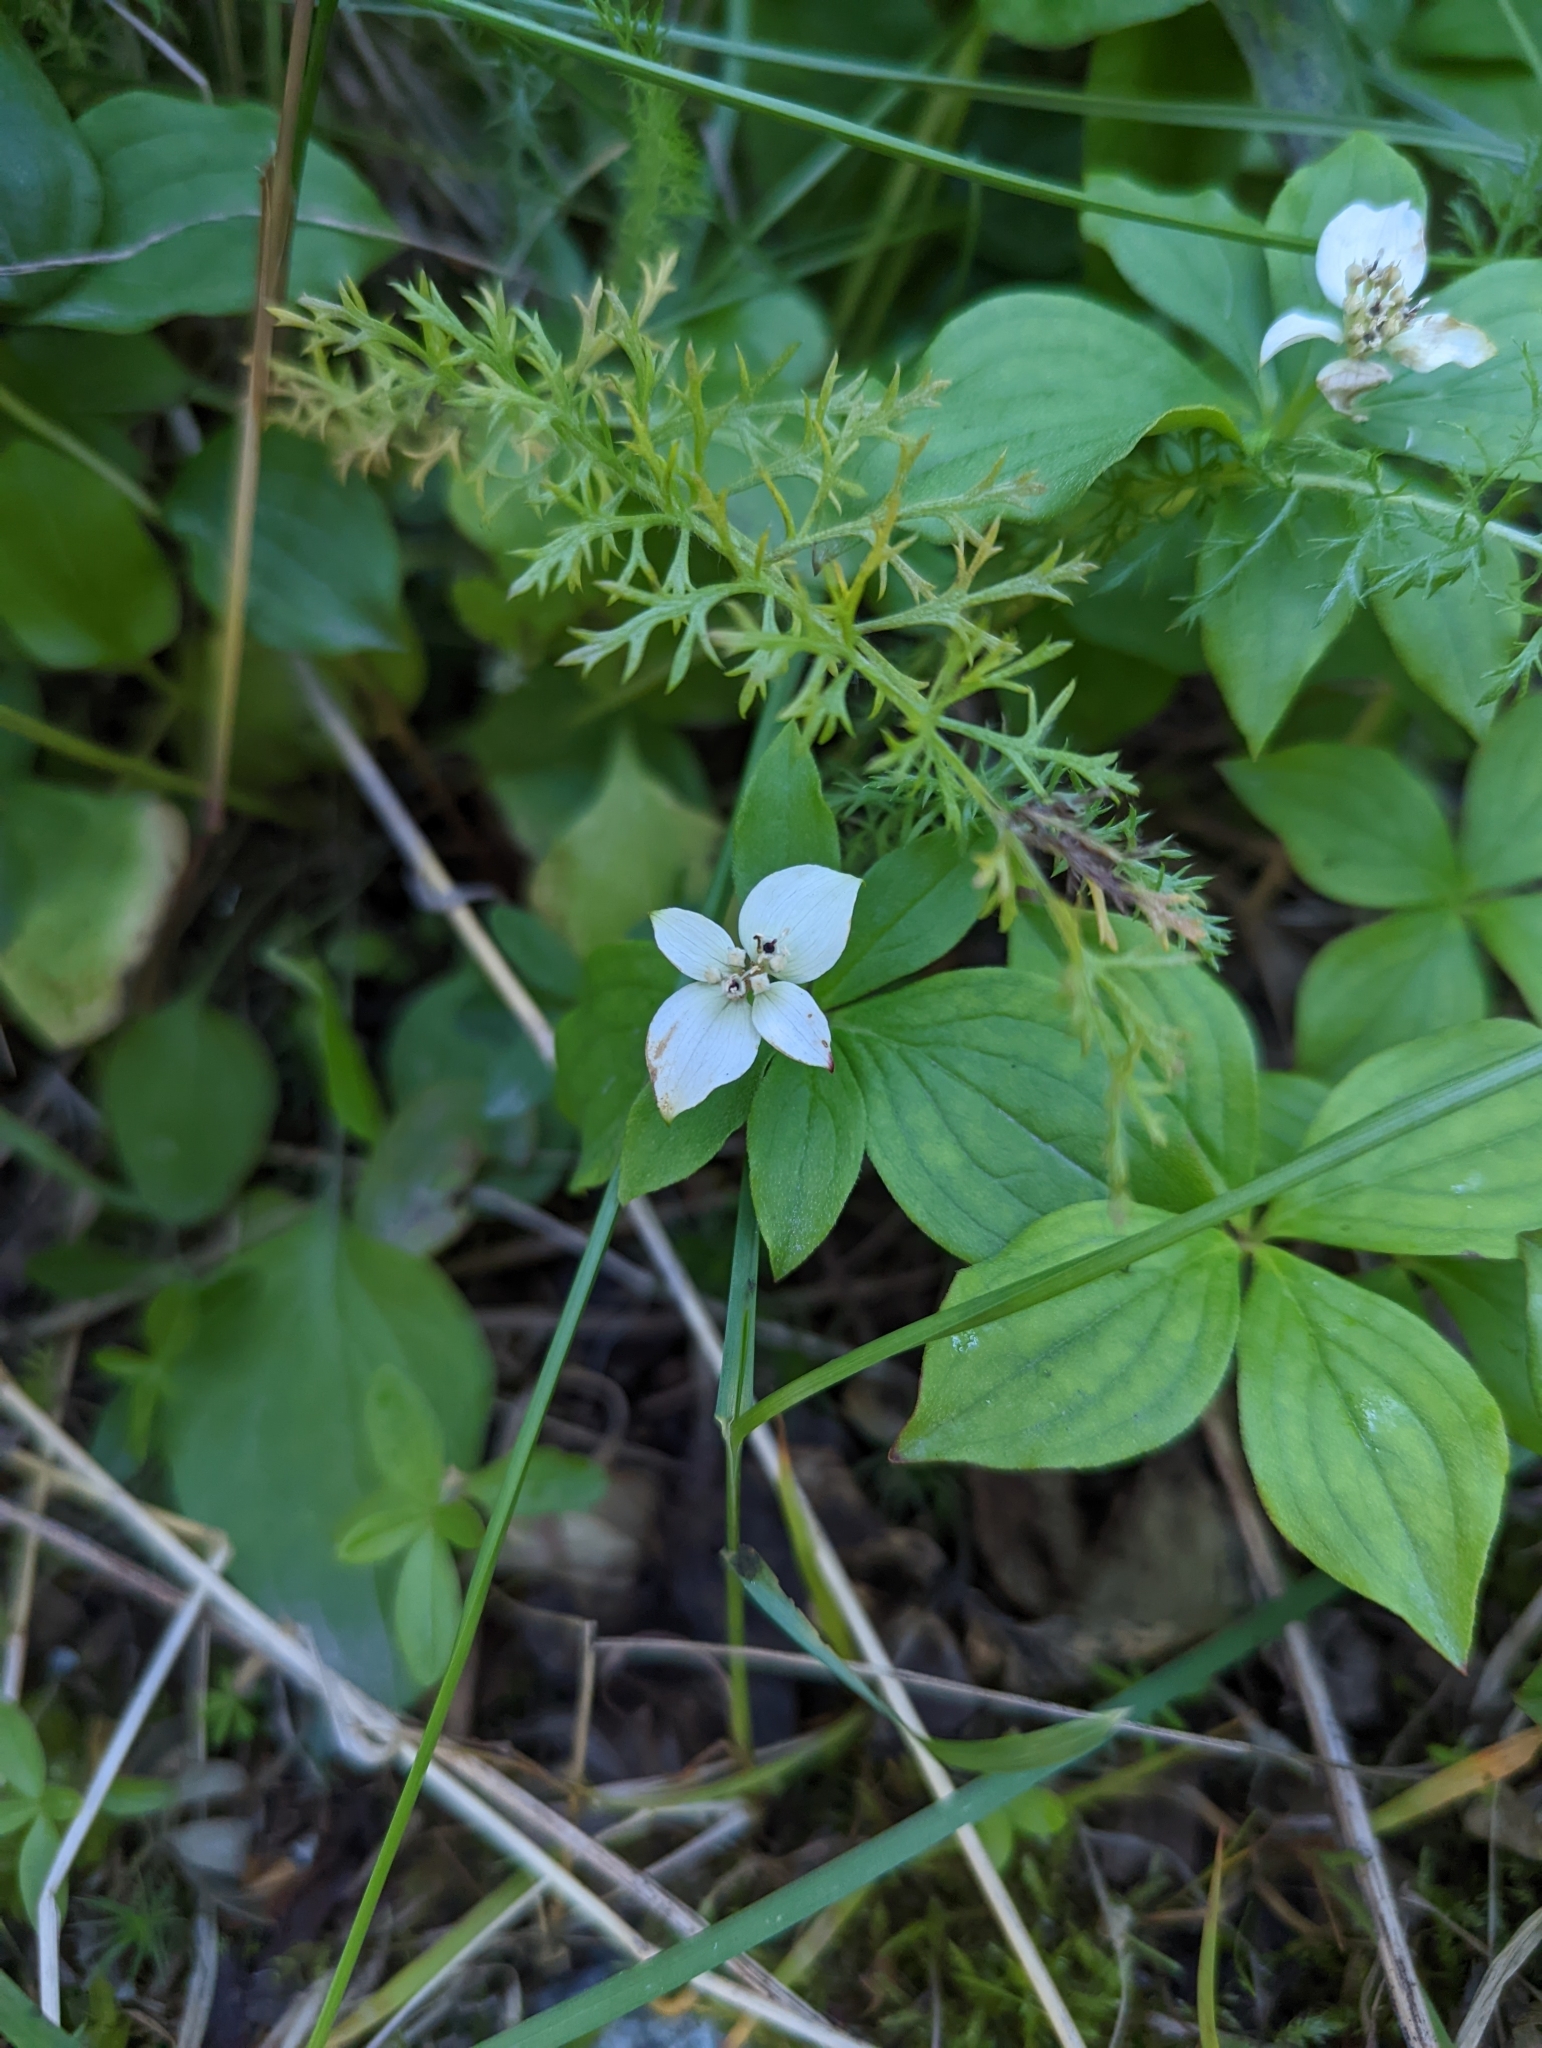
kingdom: Plantae
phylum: Tracheophyta
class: Magnoliopsida
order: Cornales
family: Cornaceae
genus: Cornus
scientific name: Cornus canadensis
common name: Creeping dogwood
